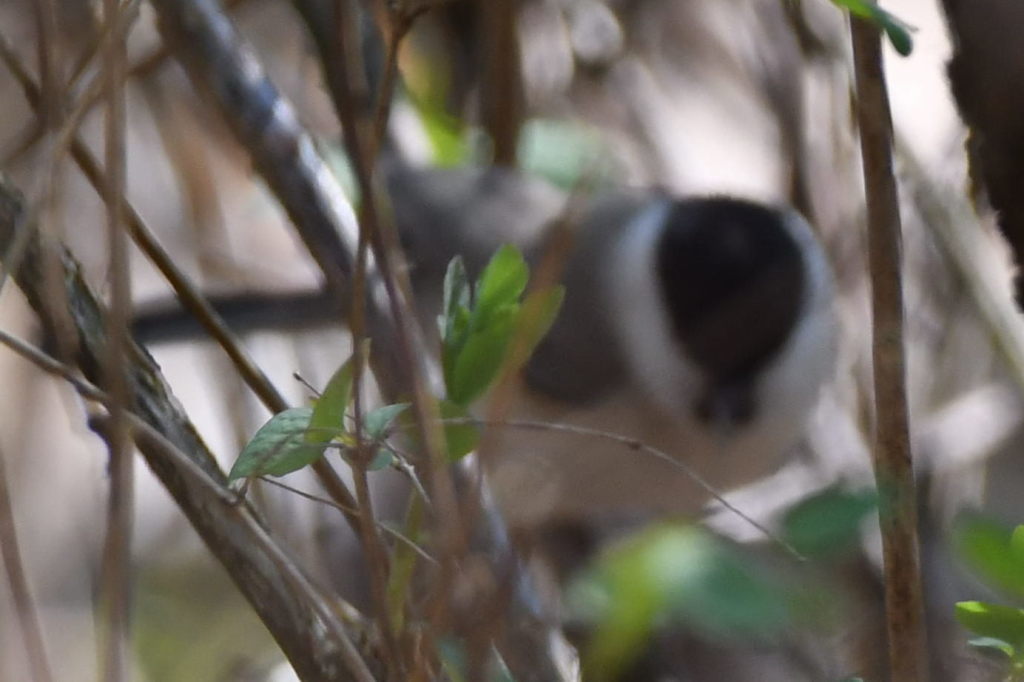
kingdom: Animalia
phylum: Chordata
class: Aves
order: Passeriformes
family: Paridae
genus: Poecile
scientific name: Poecile palustris
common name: Marsh tit
